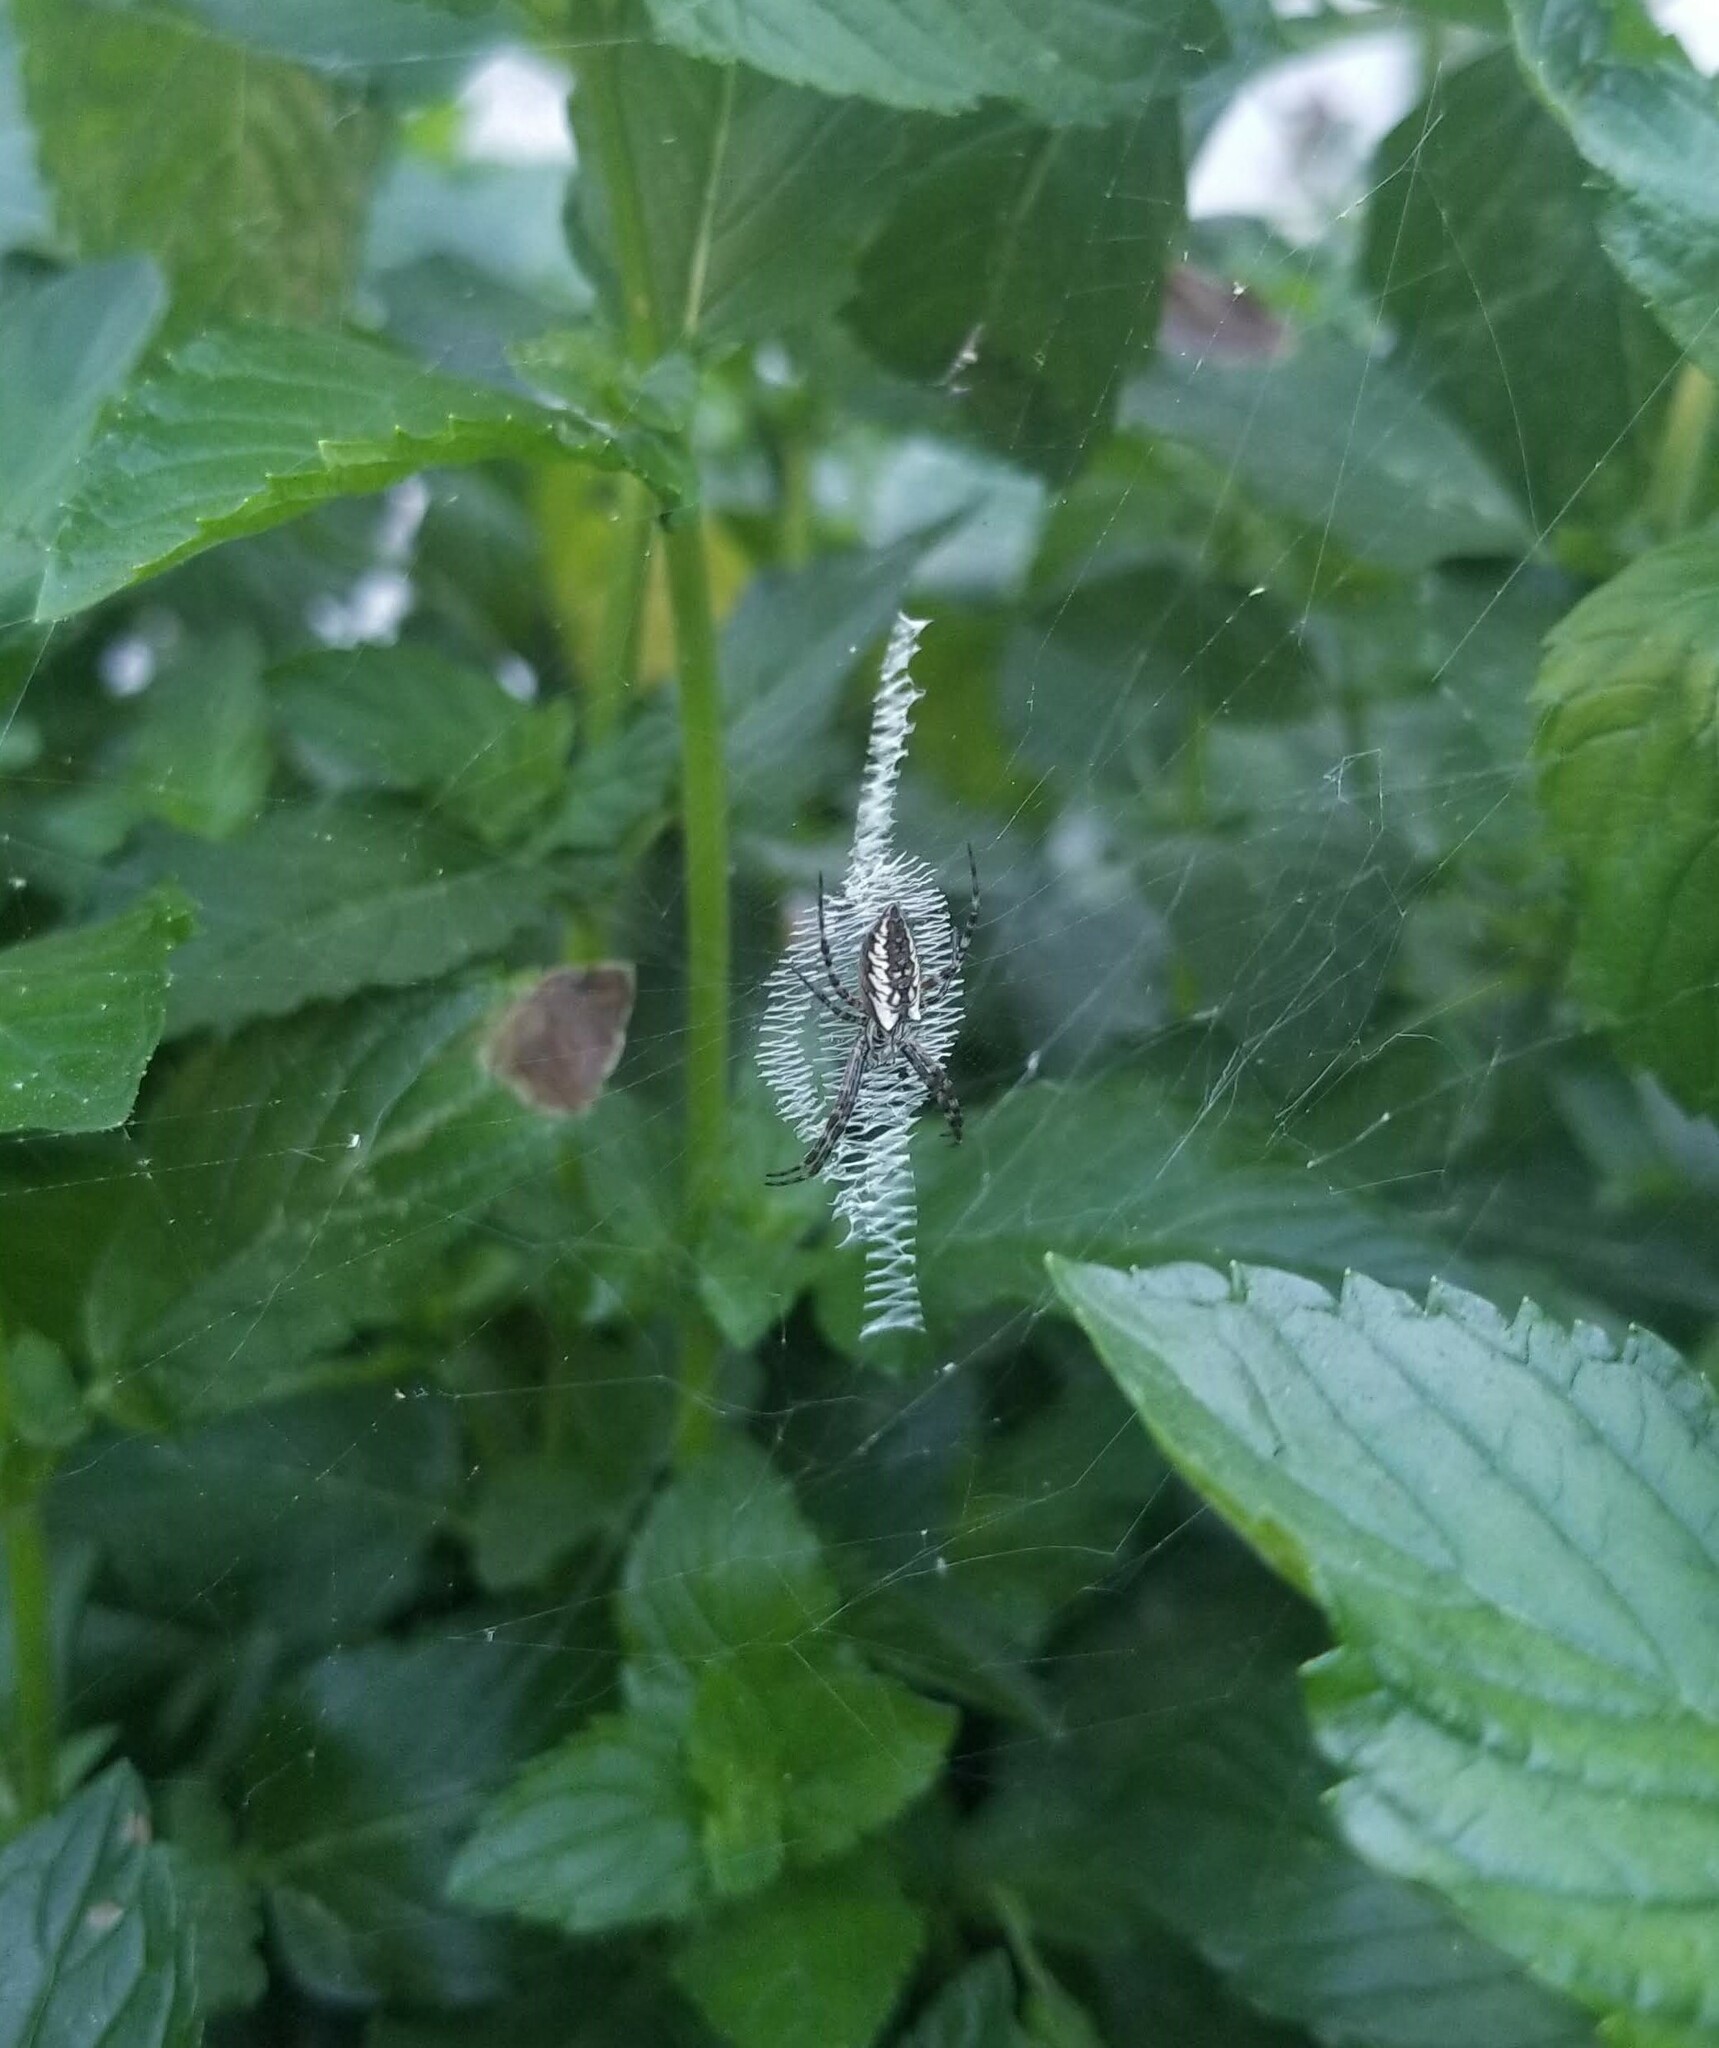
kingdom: Animalia
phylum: Arthropoda
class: Arachnida
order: Araneae
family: Araneidae
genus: Argiope
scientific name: Argiope aurantia
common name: Orb weavers
